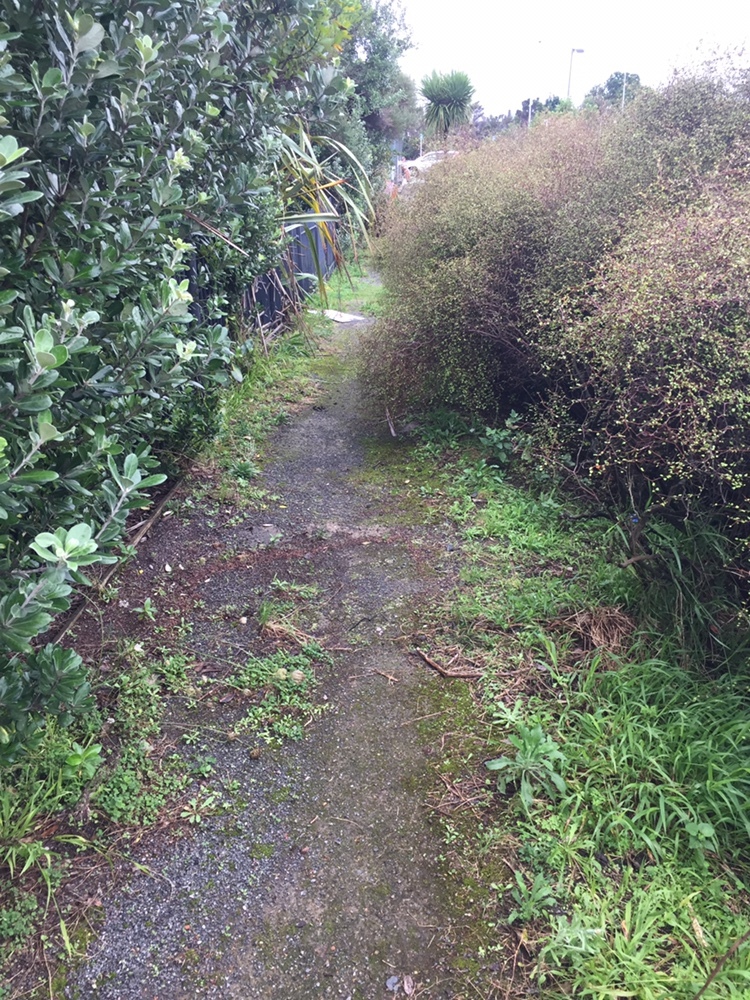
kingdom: Bacteria
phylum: Cyanobacteria
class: Cyanobacteriia
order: Cyanobacteriales
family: Nostocaceae
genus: Nostoc
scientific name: Nostoc commune
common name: Star jelly
